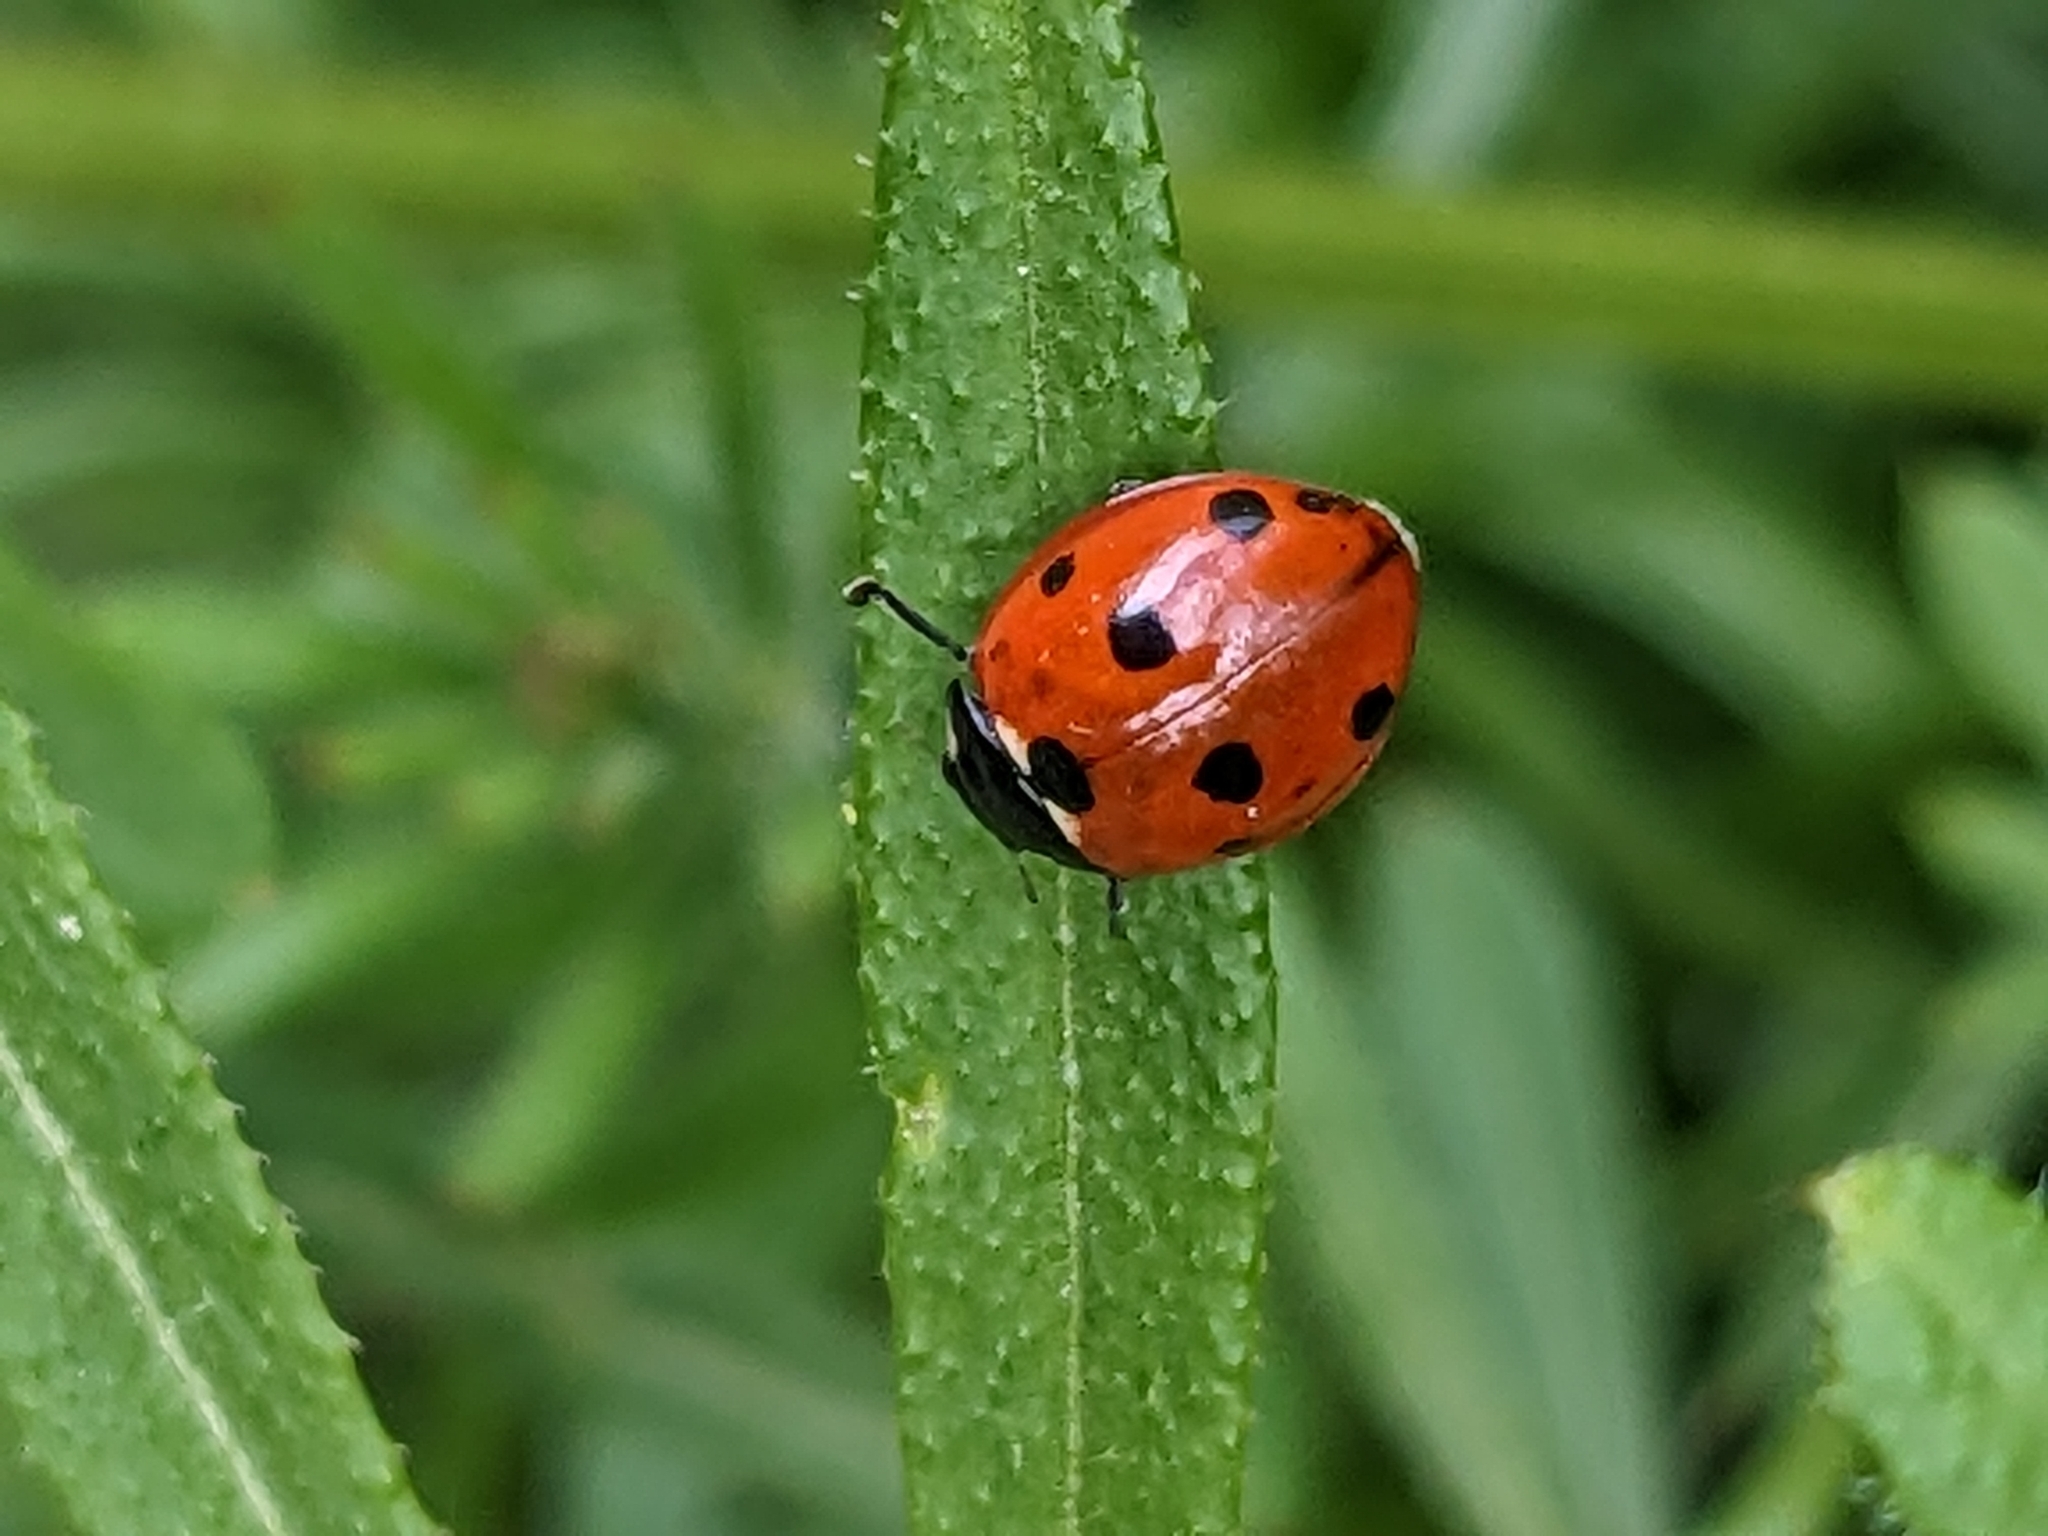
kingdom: Animalia
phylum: Arthropoda
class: Insecta
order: Coleoptera
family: Coccinellidae
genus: Coccinella
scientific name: Coccinella septempunctata
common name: Sevenspotted lady beetle
